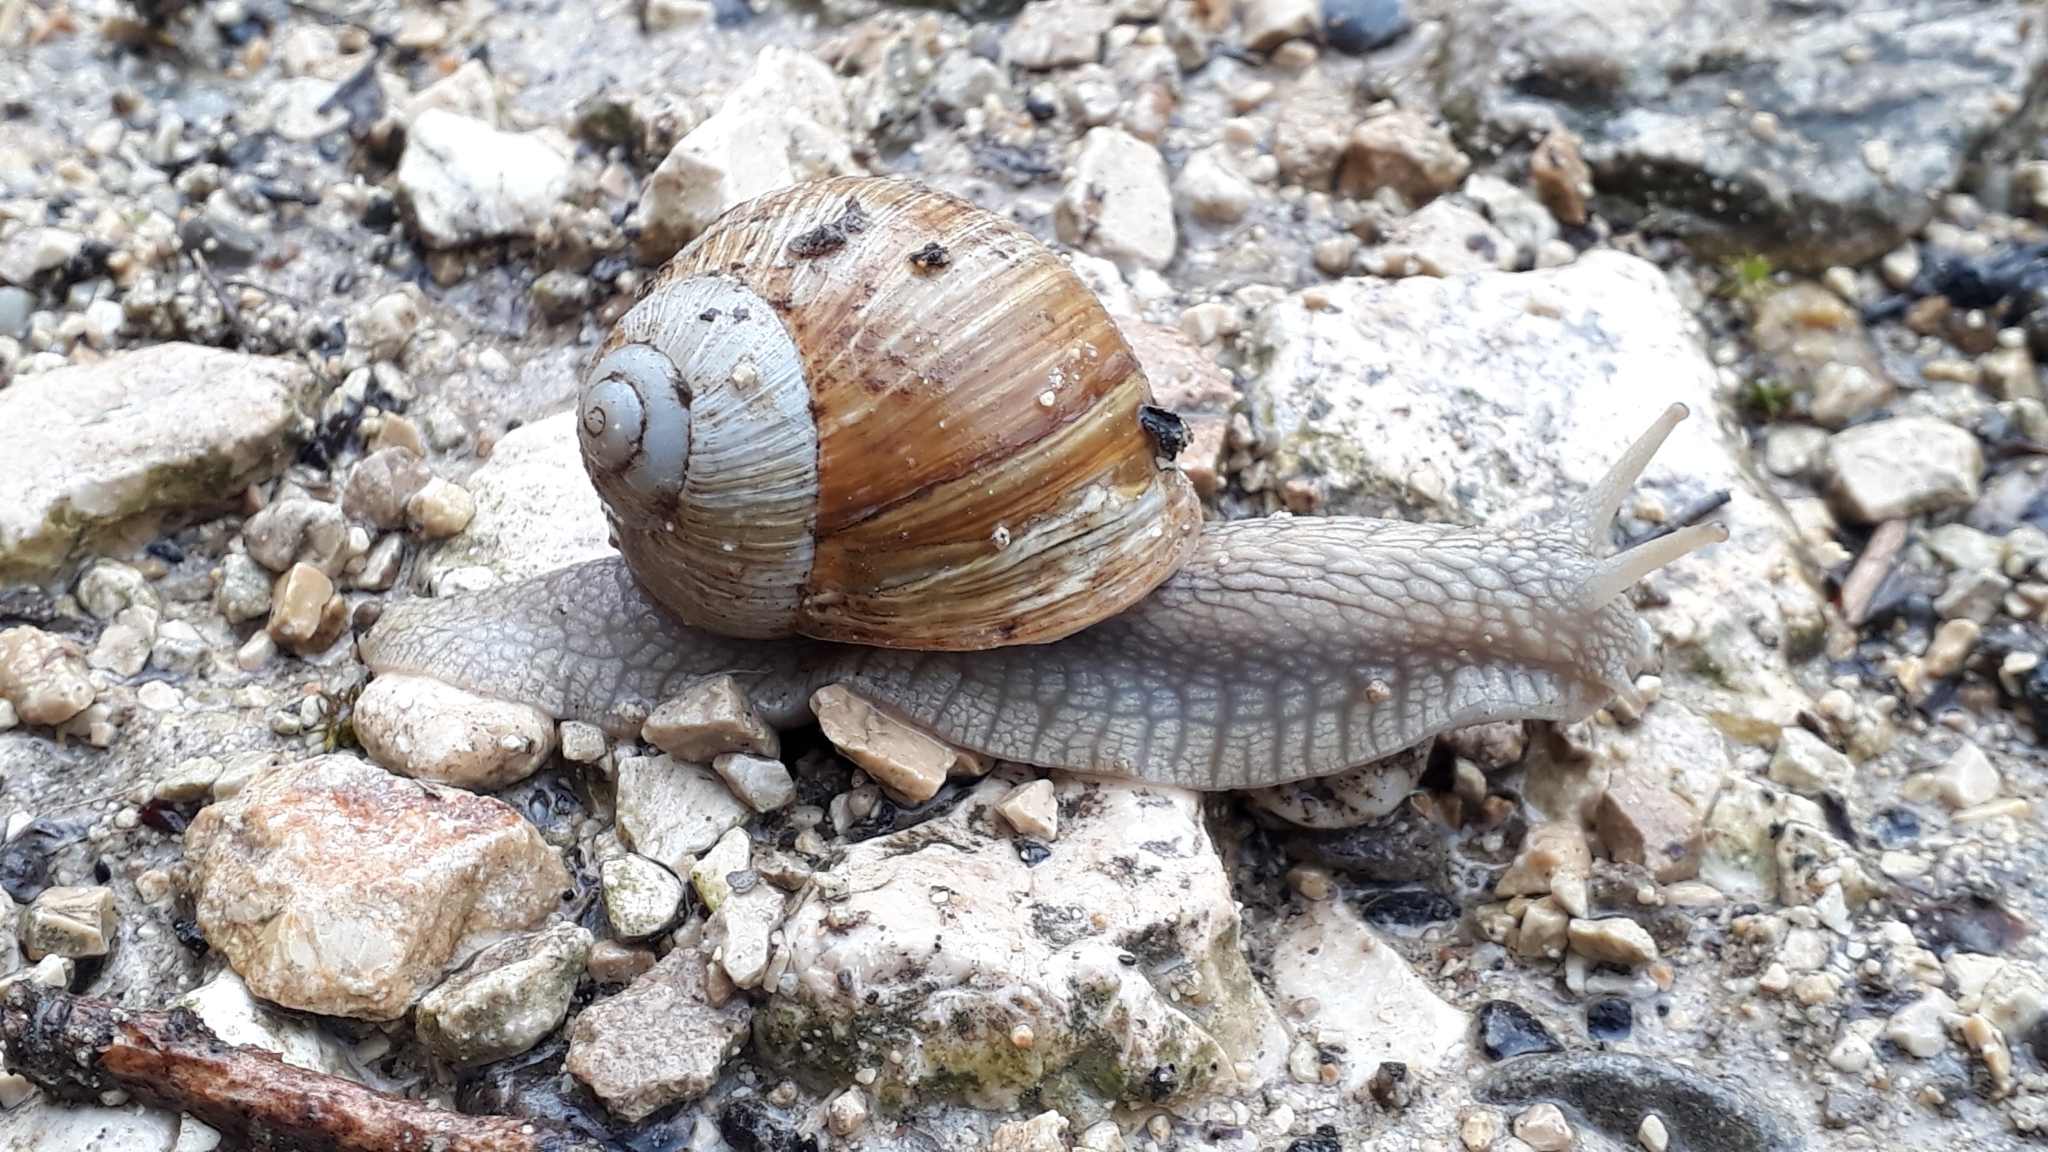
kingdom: Animalia
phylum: Mollusca
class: Gastropoda
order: Stylommatophora
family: Helicidae
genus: Helix
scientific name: Helix pomatia
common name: Roman snail
